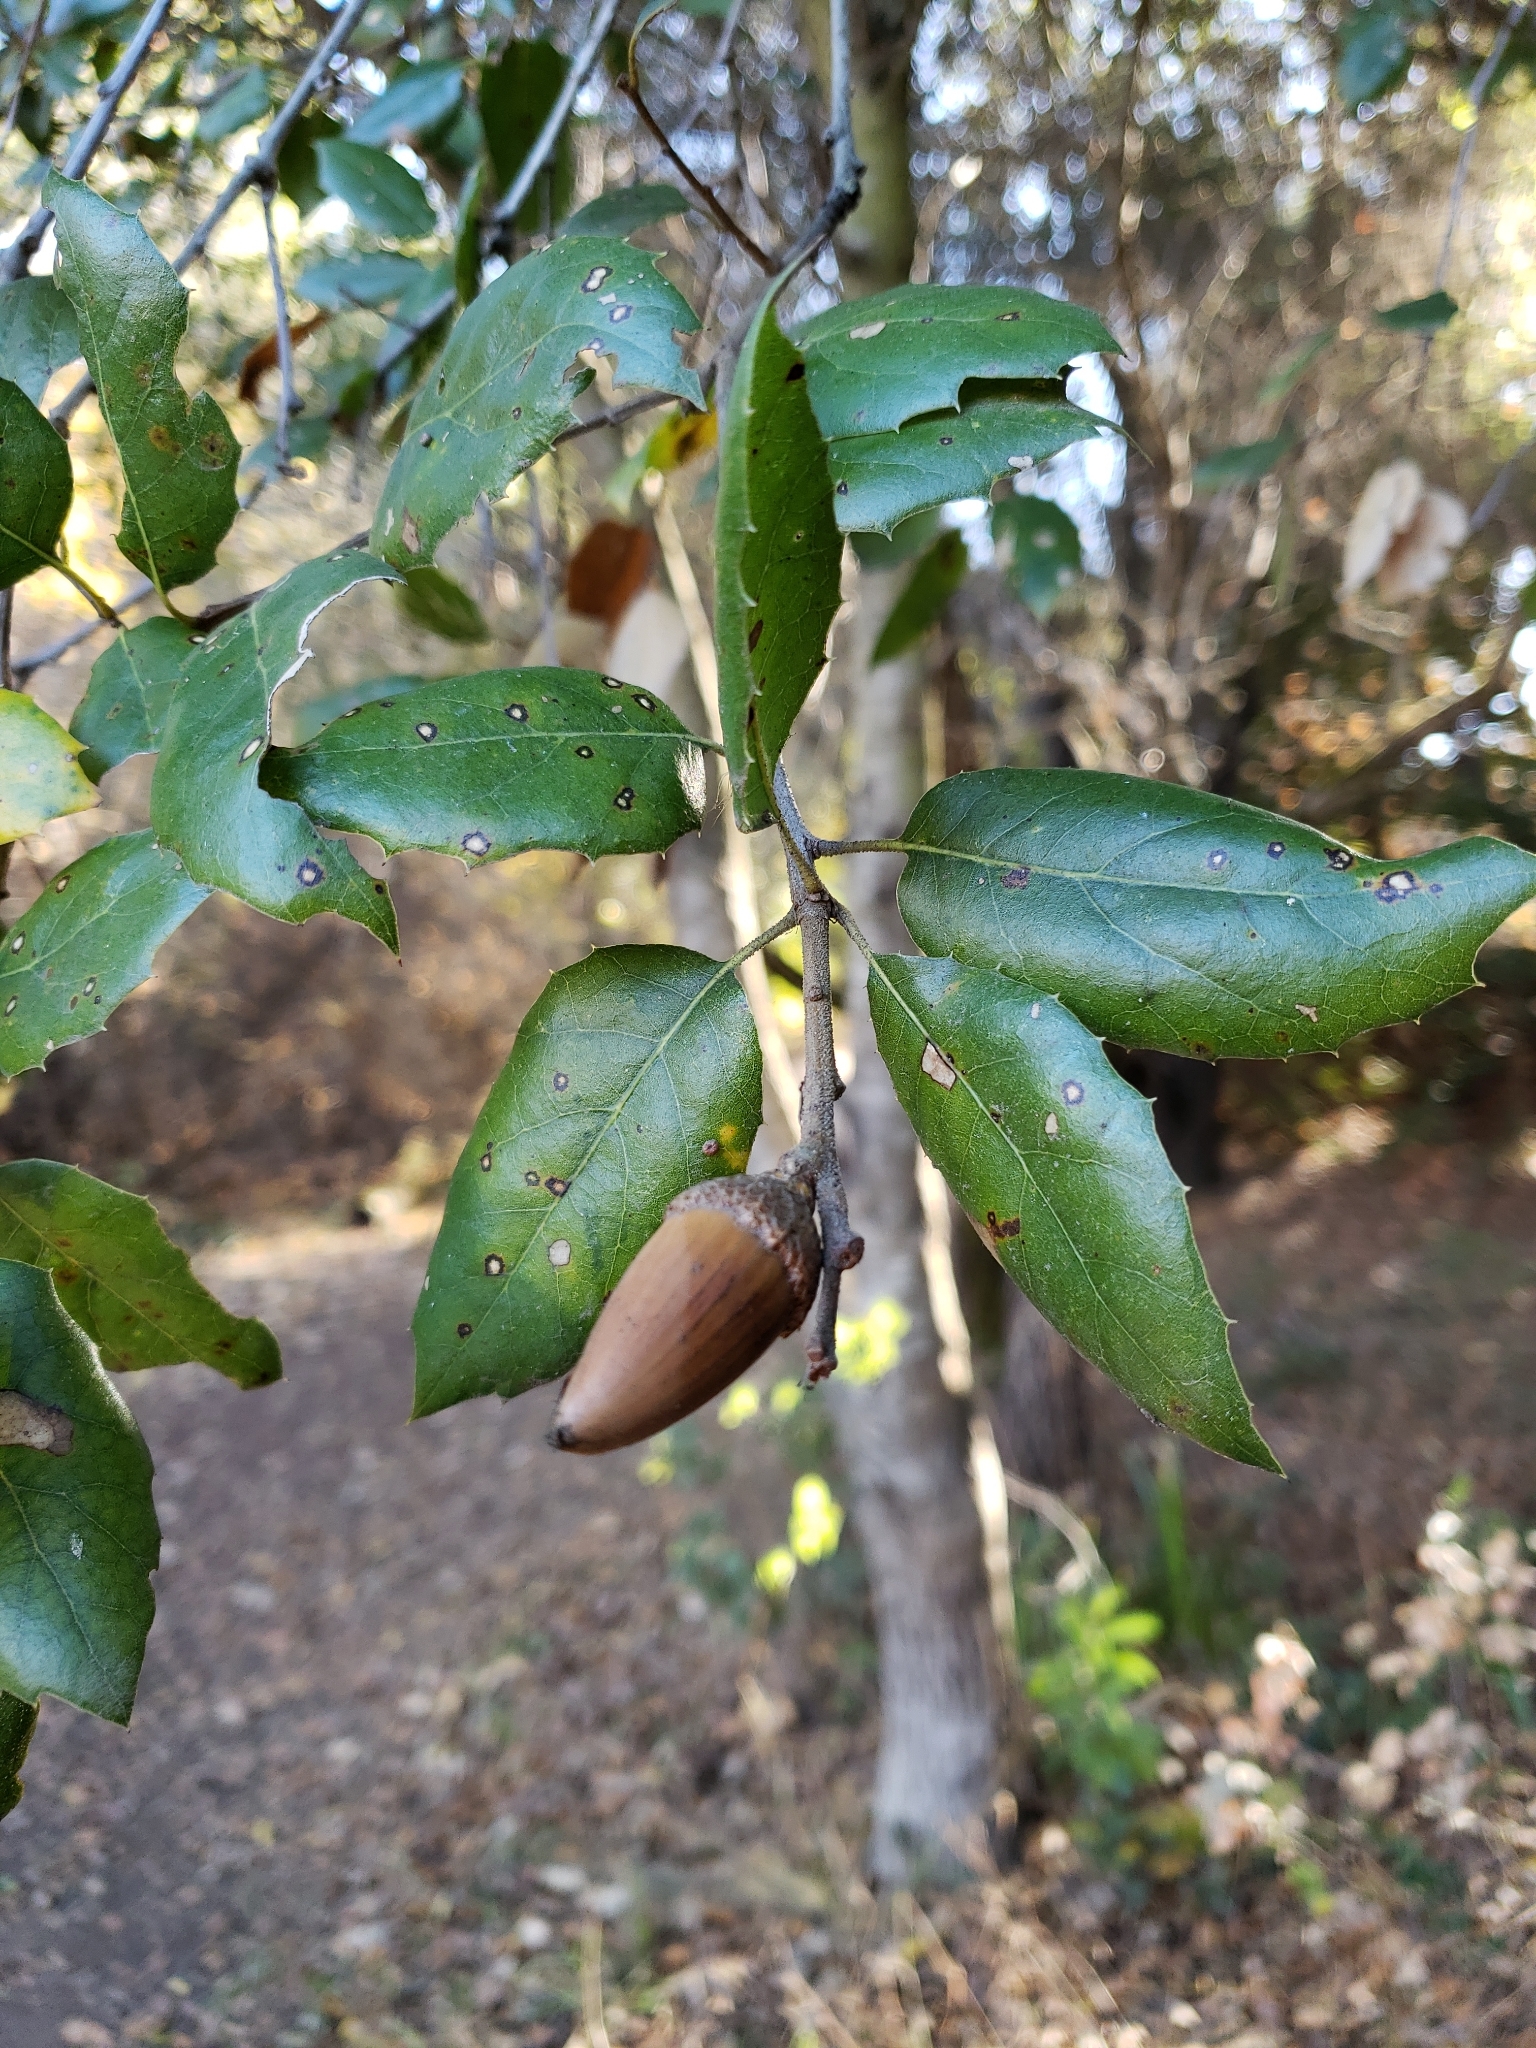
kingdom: Plantae
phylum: Tracheophyta
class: Magnoliopsida
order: Fagales
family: Fagaceae
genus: Quercus
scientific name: Quercus agrifolia
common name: California live oak
